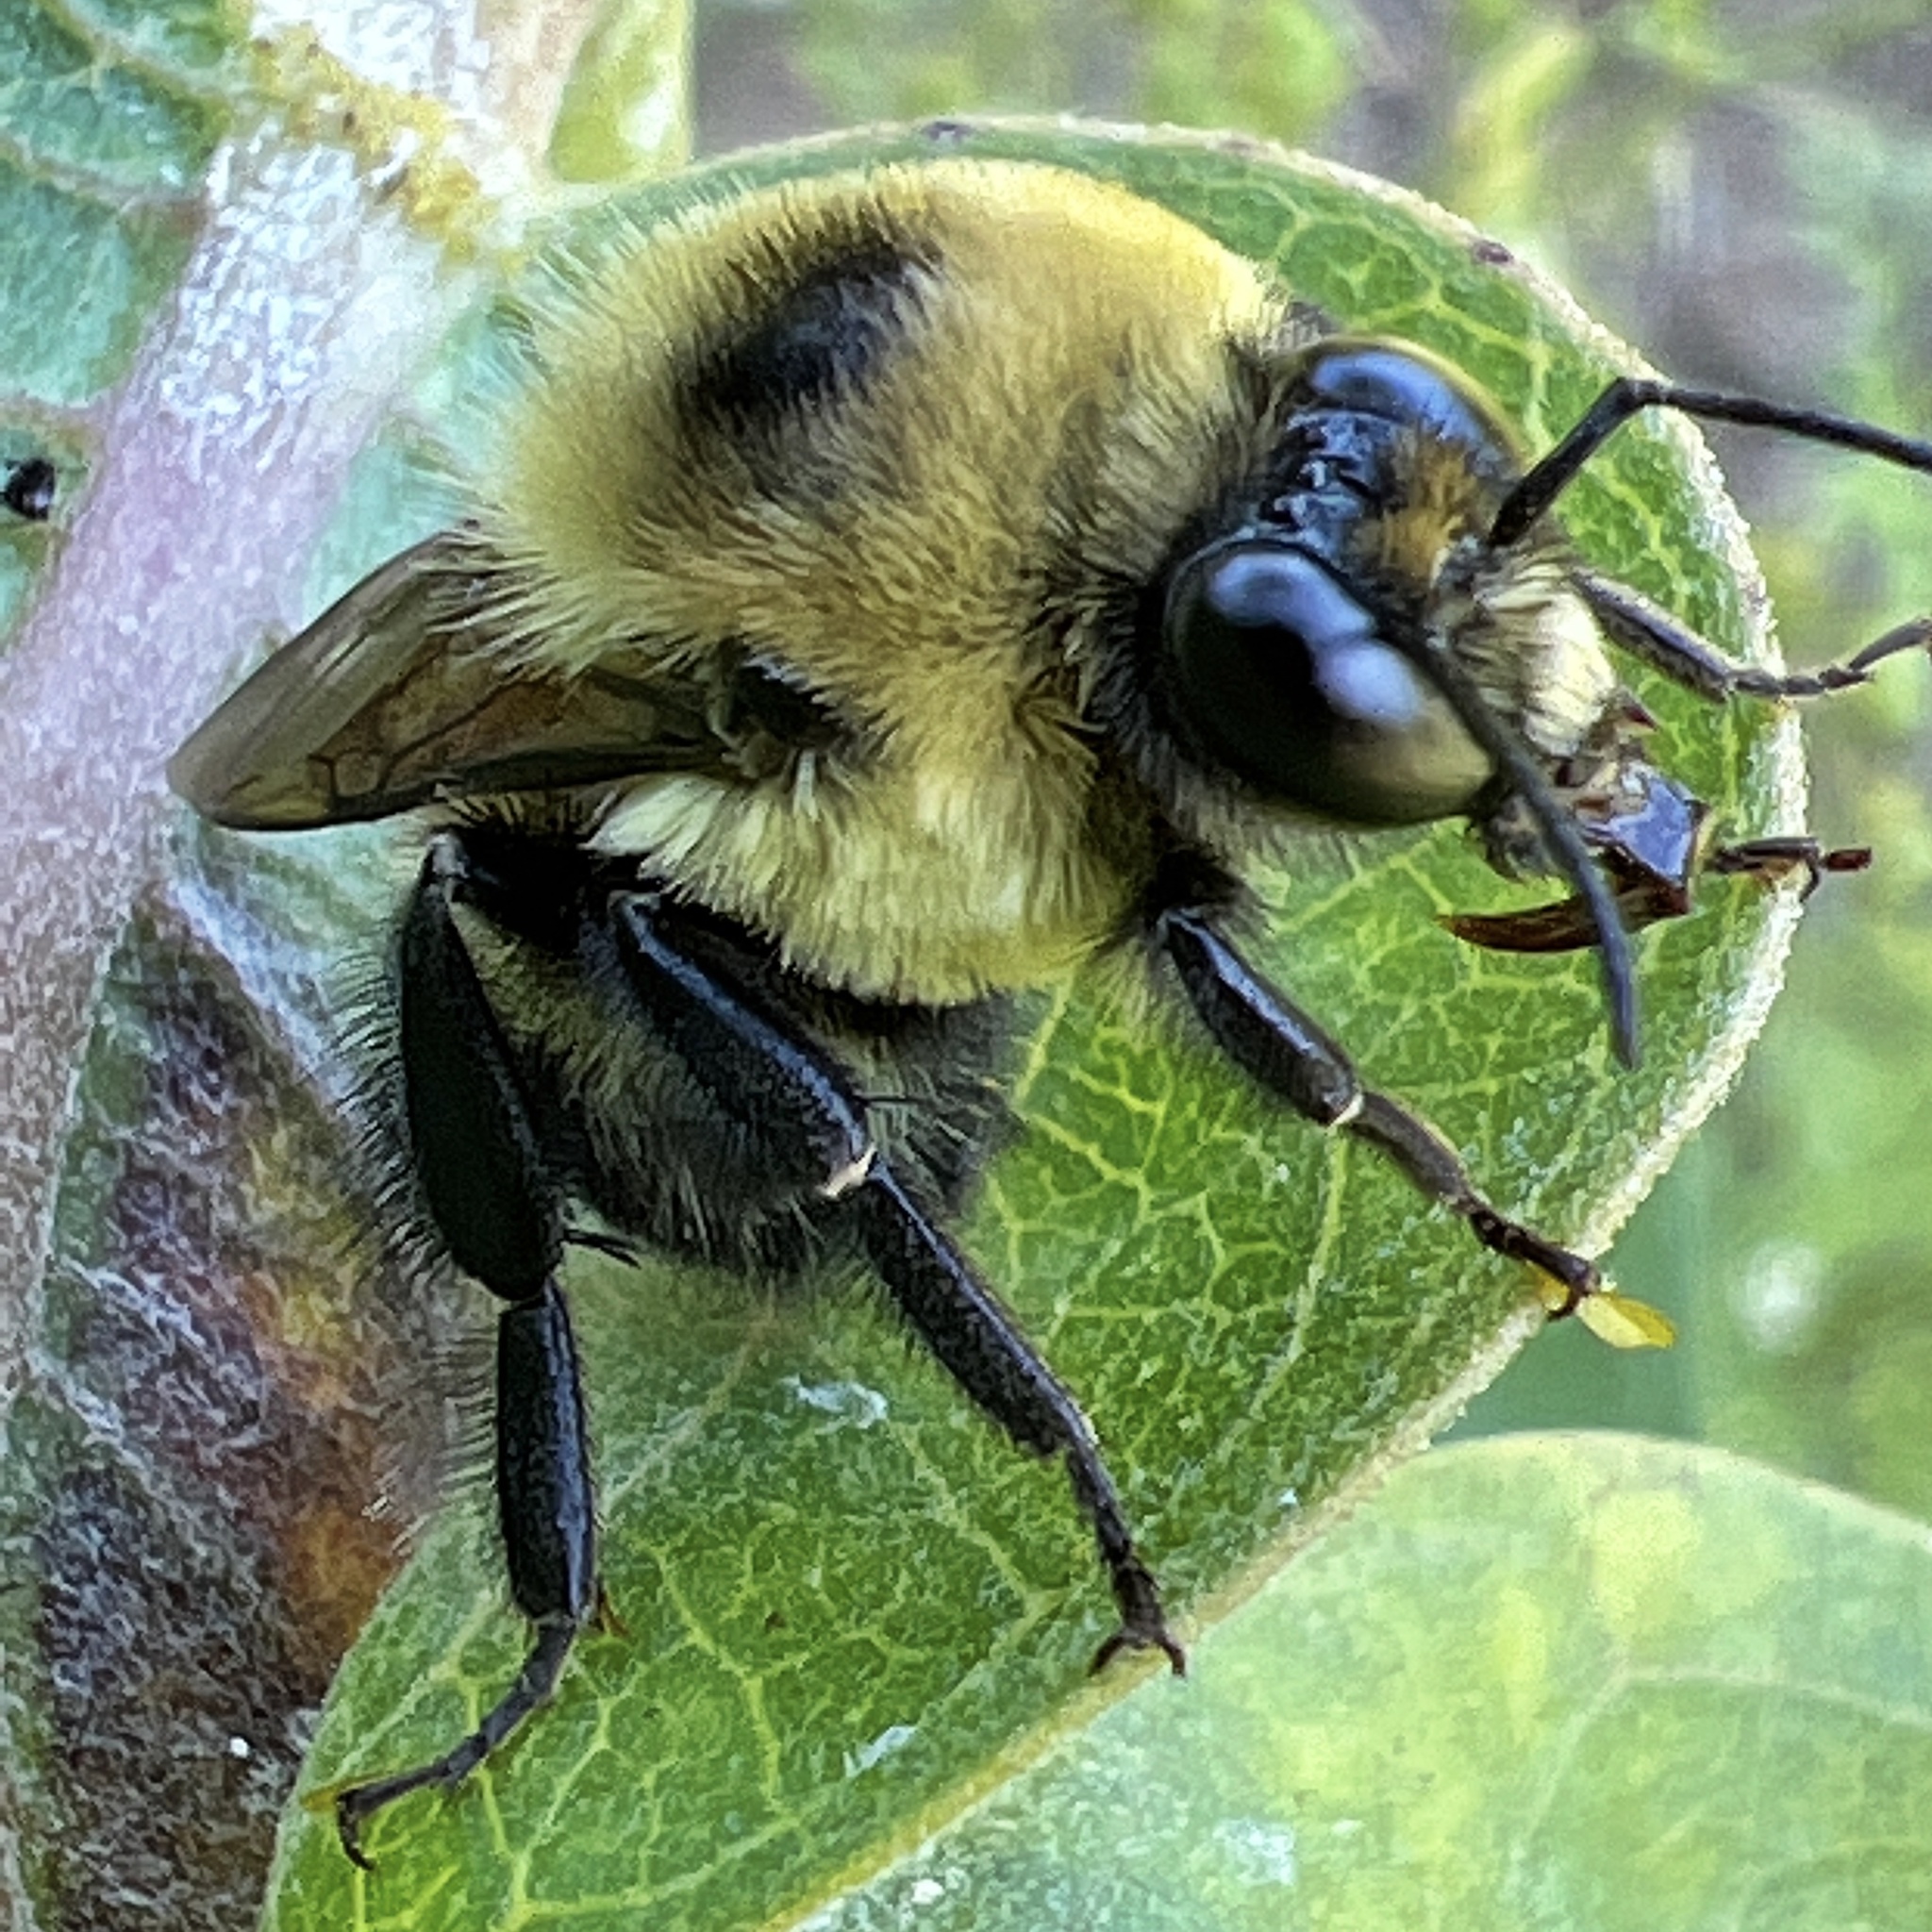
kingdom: Animalia
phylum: Arthropoda
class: Insecta
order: Hymenoptera
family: Apidae
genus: Bombus
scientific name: Bombus griseocollis
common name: Brown-belted bumble bee
